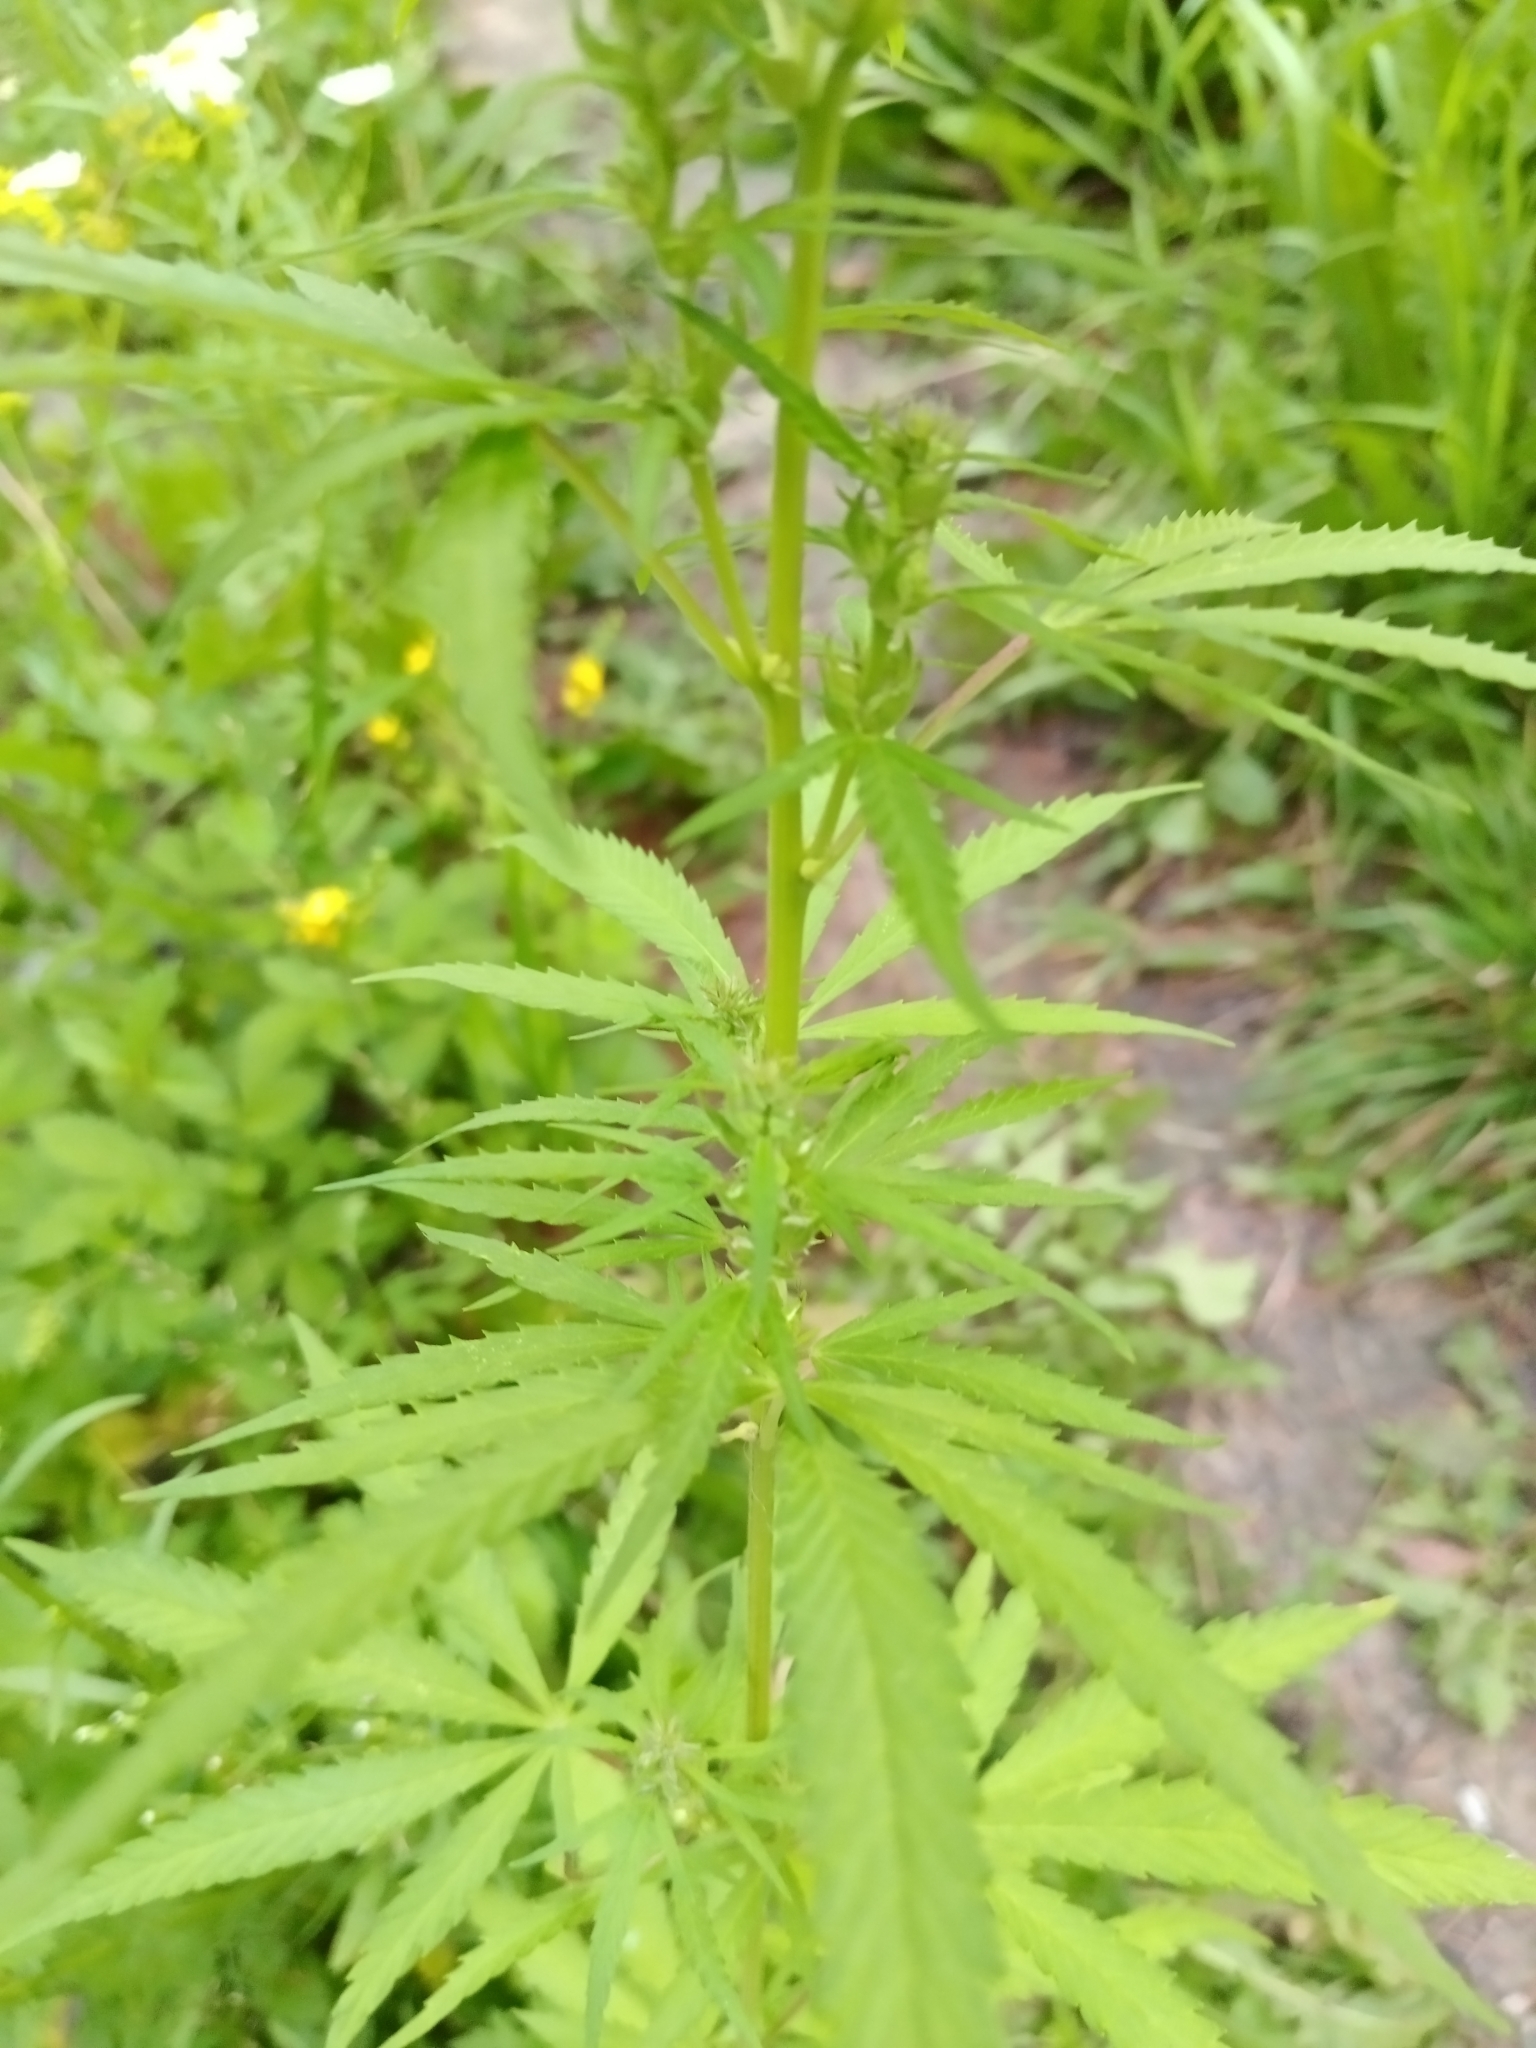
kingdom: Plantae
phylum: Tracheophyta
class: Magnoliopsida
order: Rosales
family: Cannabaceae
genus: Cannabis
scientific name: Cannabis sativa
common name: Hemp
